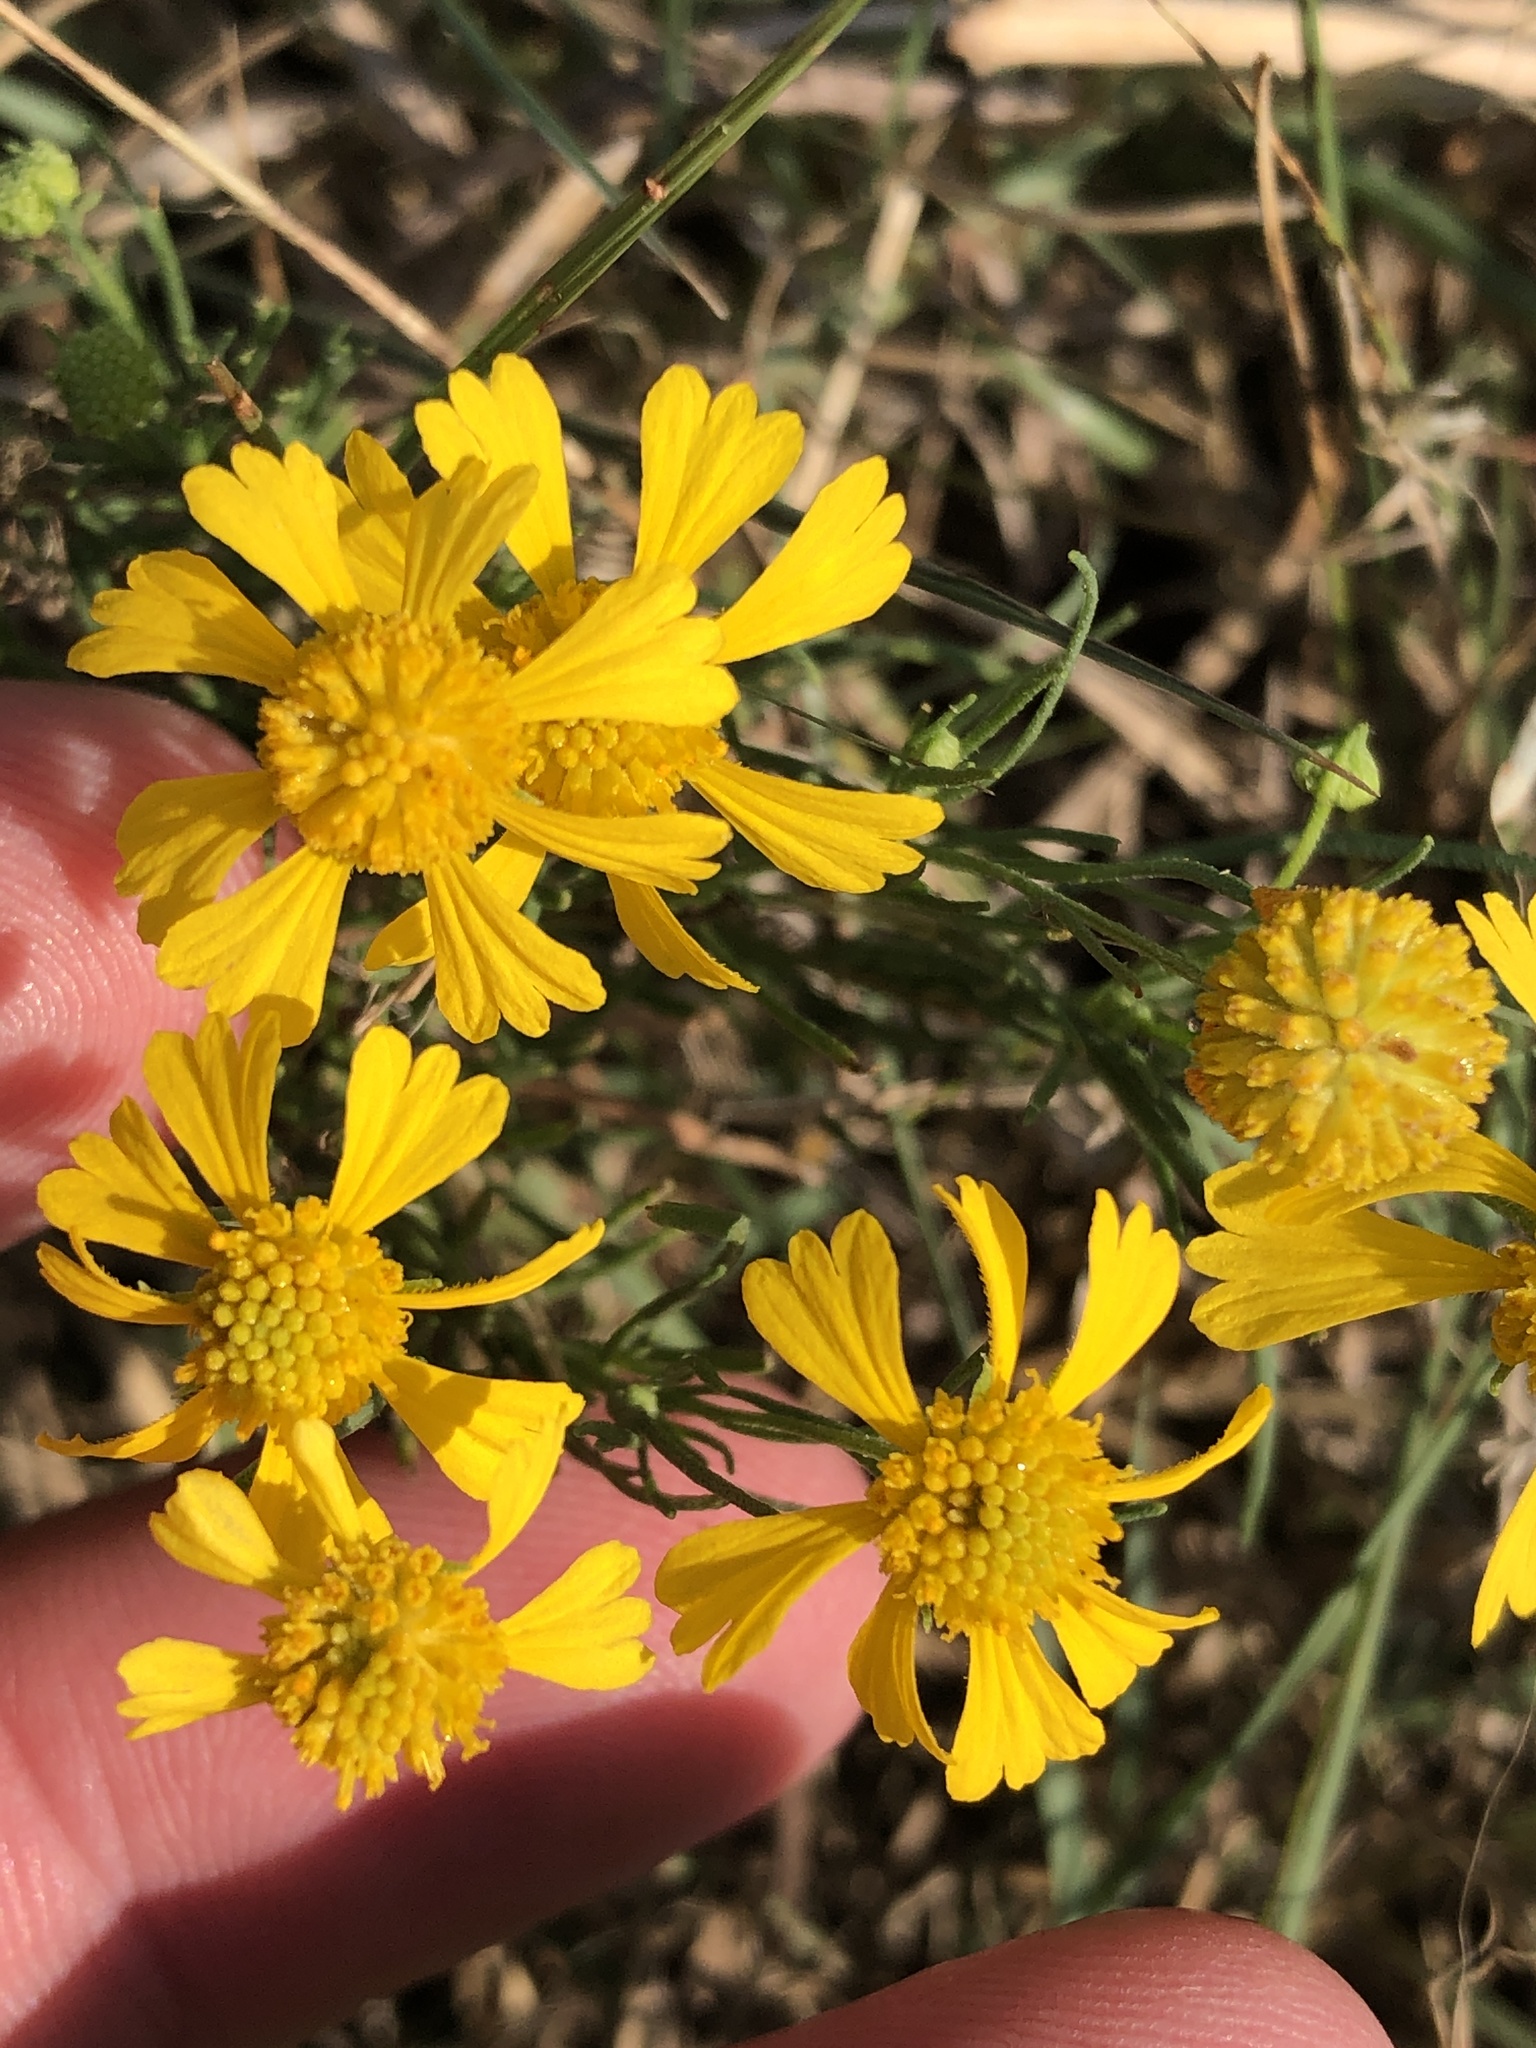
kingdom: Plantae
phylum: Tracheophyta
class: Magnoliopsida
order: Asterales
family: Asteraceae
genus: Helenium
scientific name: Helenium amarum
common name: Bitter sneezeweed
